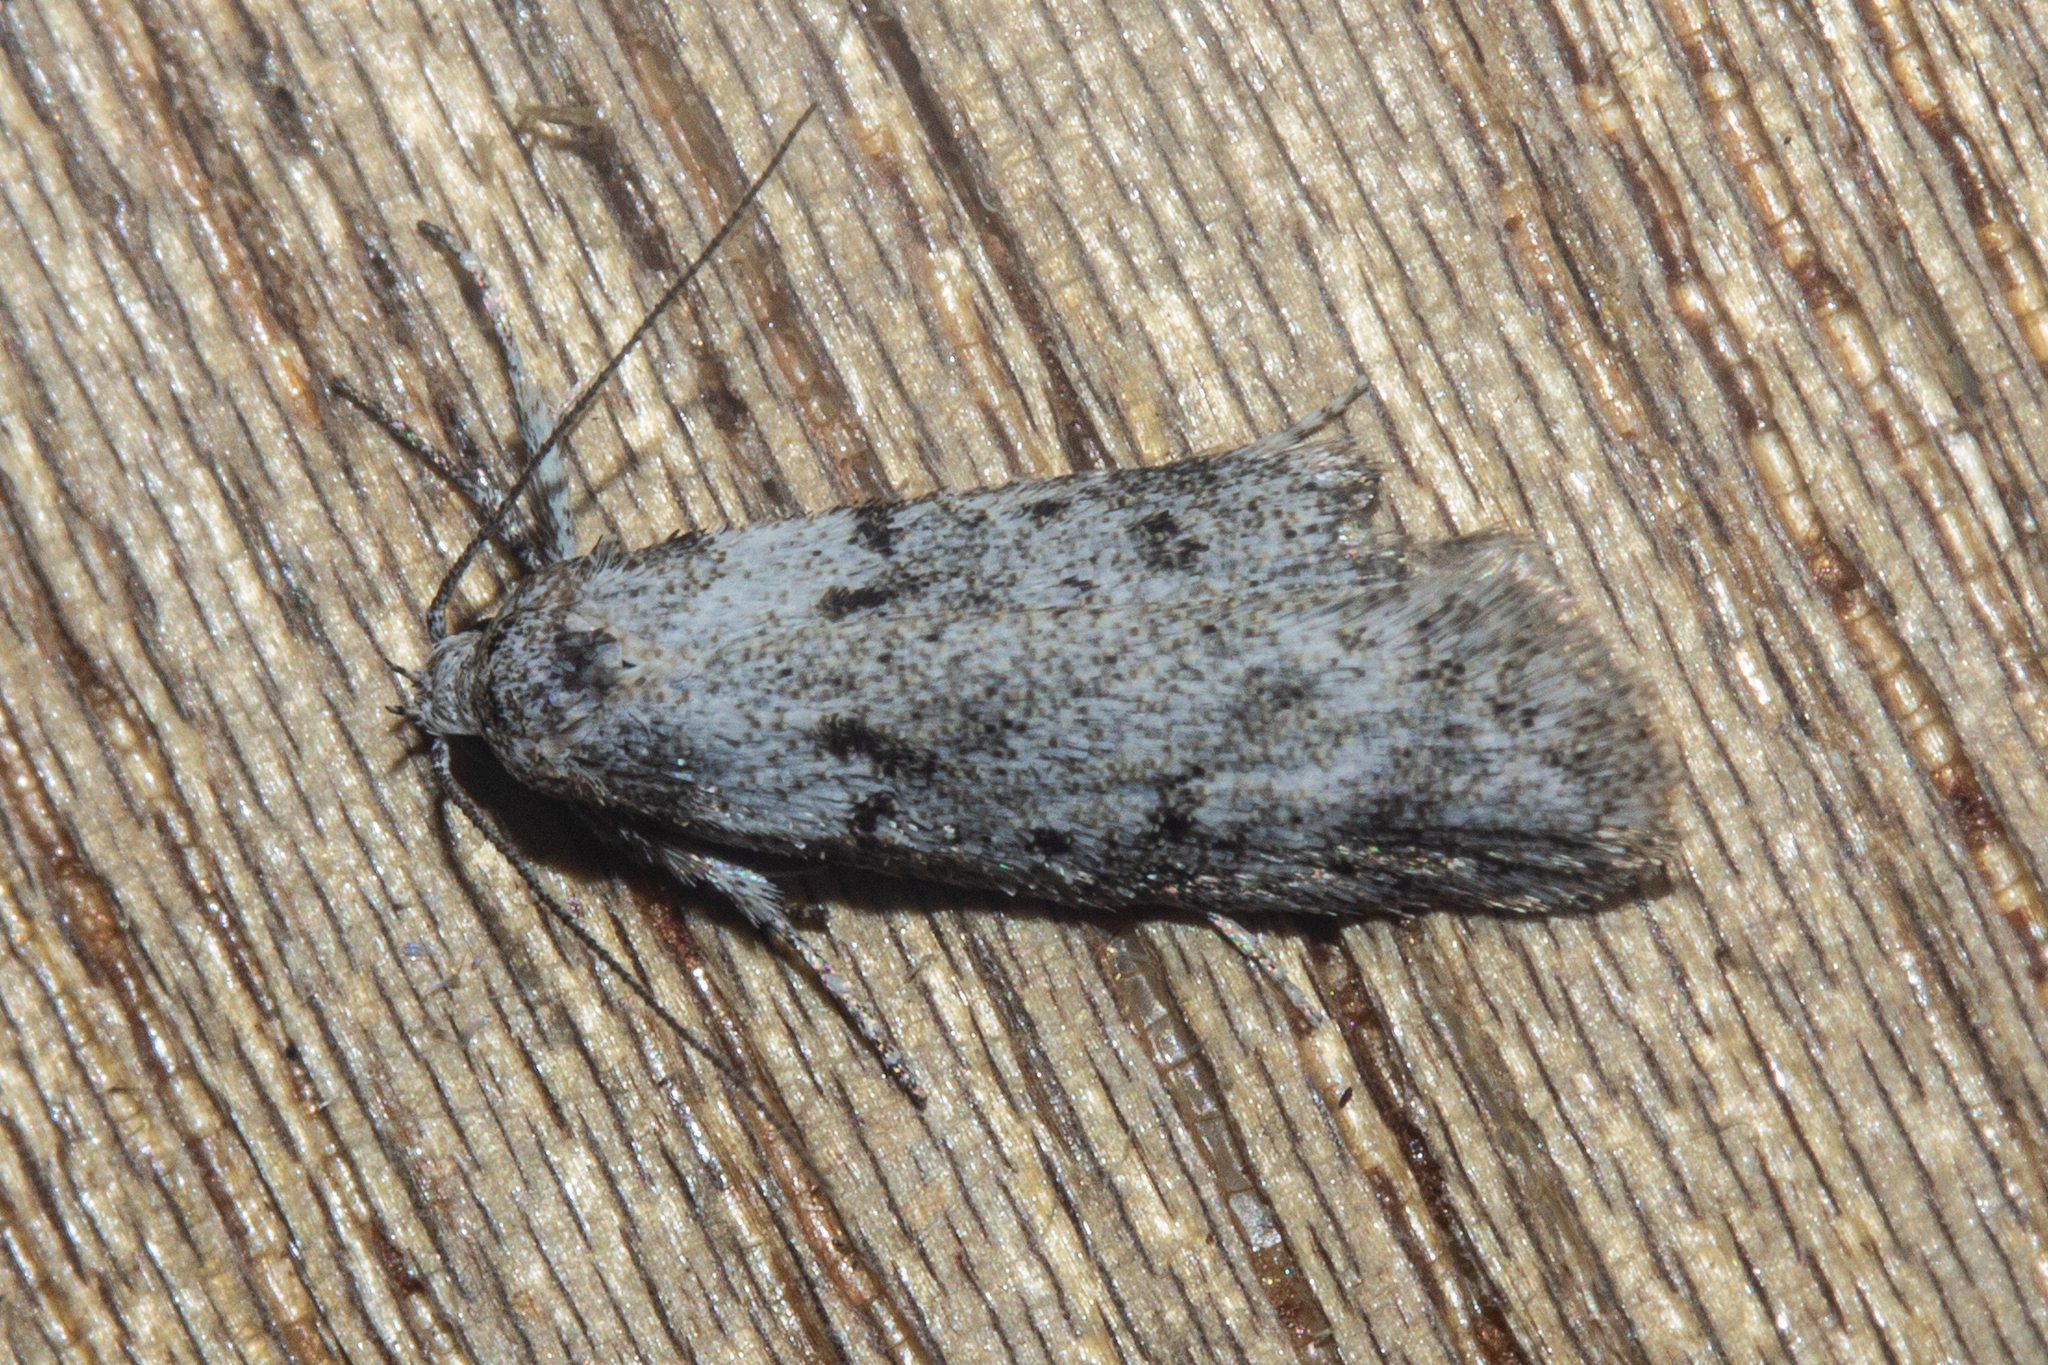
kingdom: Animalia
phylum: Arthropoda
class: Insecta
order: Lepidoptera
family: Oecophoridae
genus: Izatha
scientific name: Izatha convulsella
